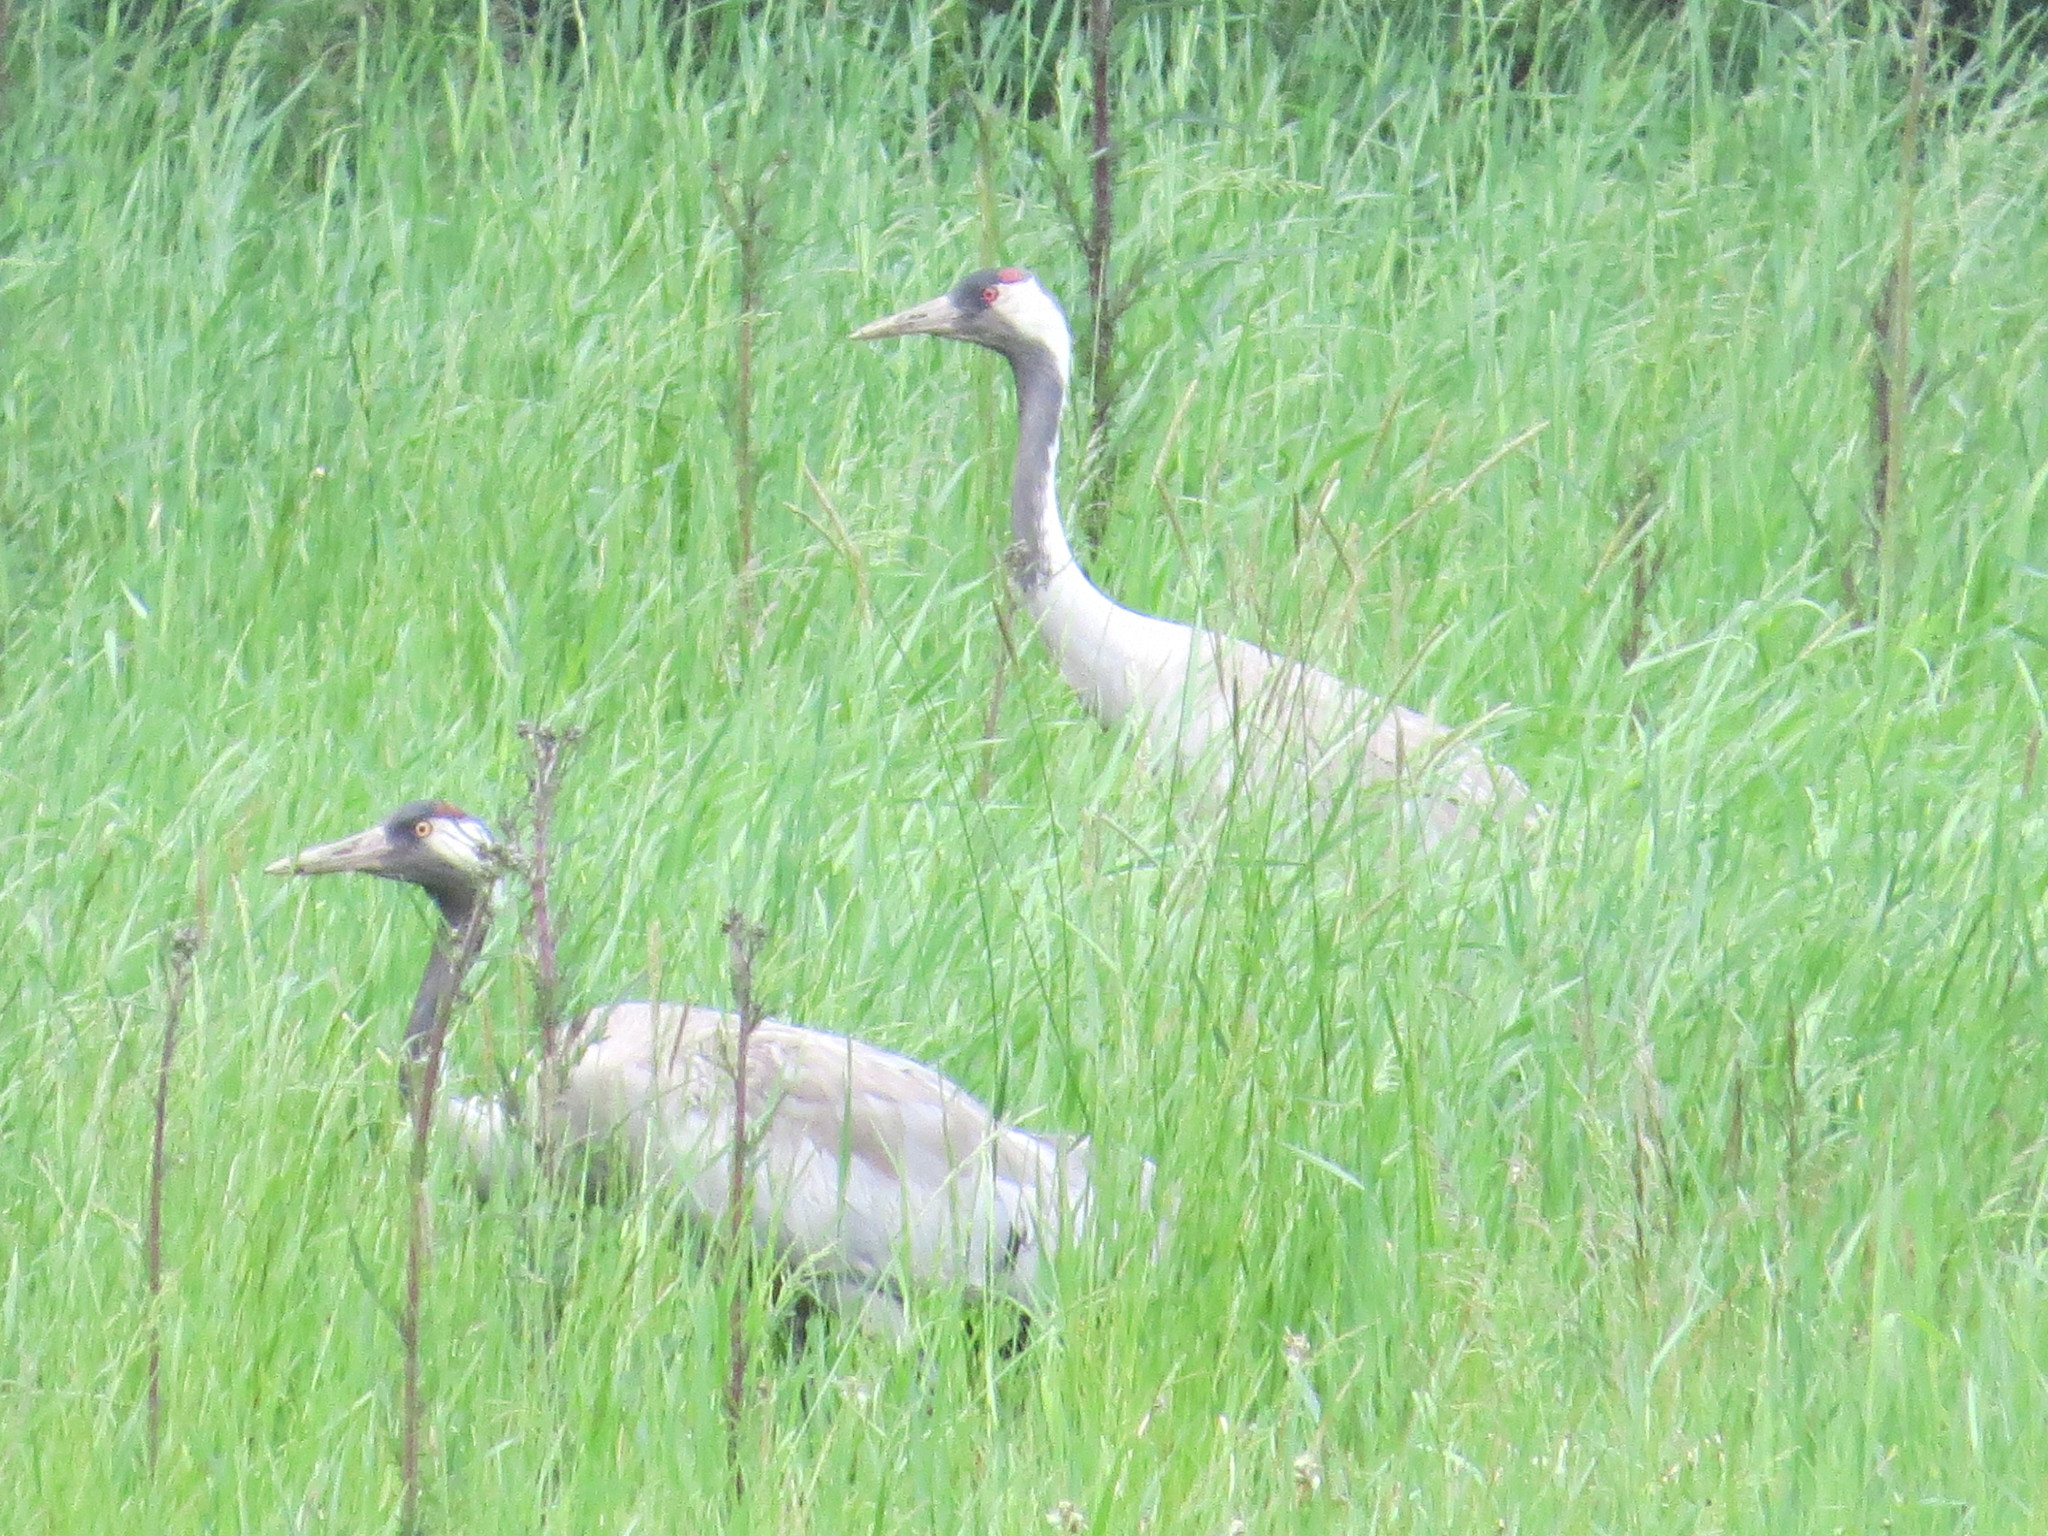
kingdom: Animalia
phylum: Chordata
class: Aves
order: Gruiformes
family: Gruidae
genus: Grus
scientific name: Grus grus
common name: Common crane
